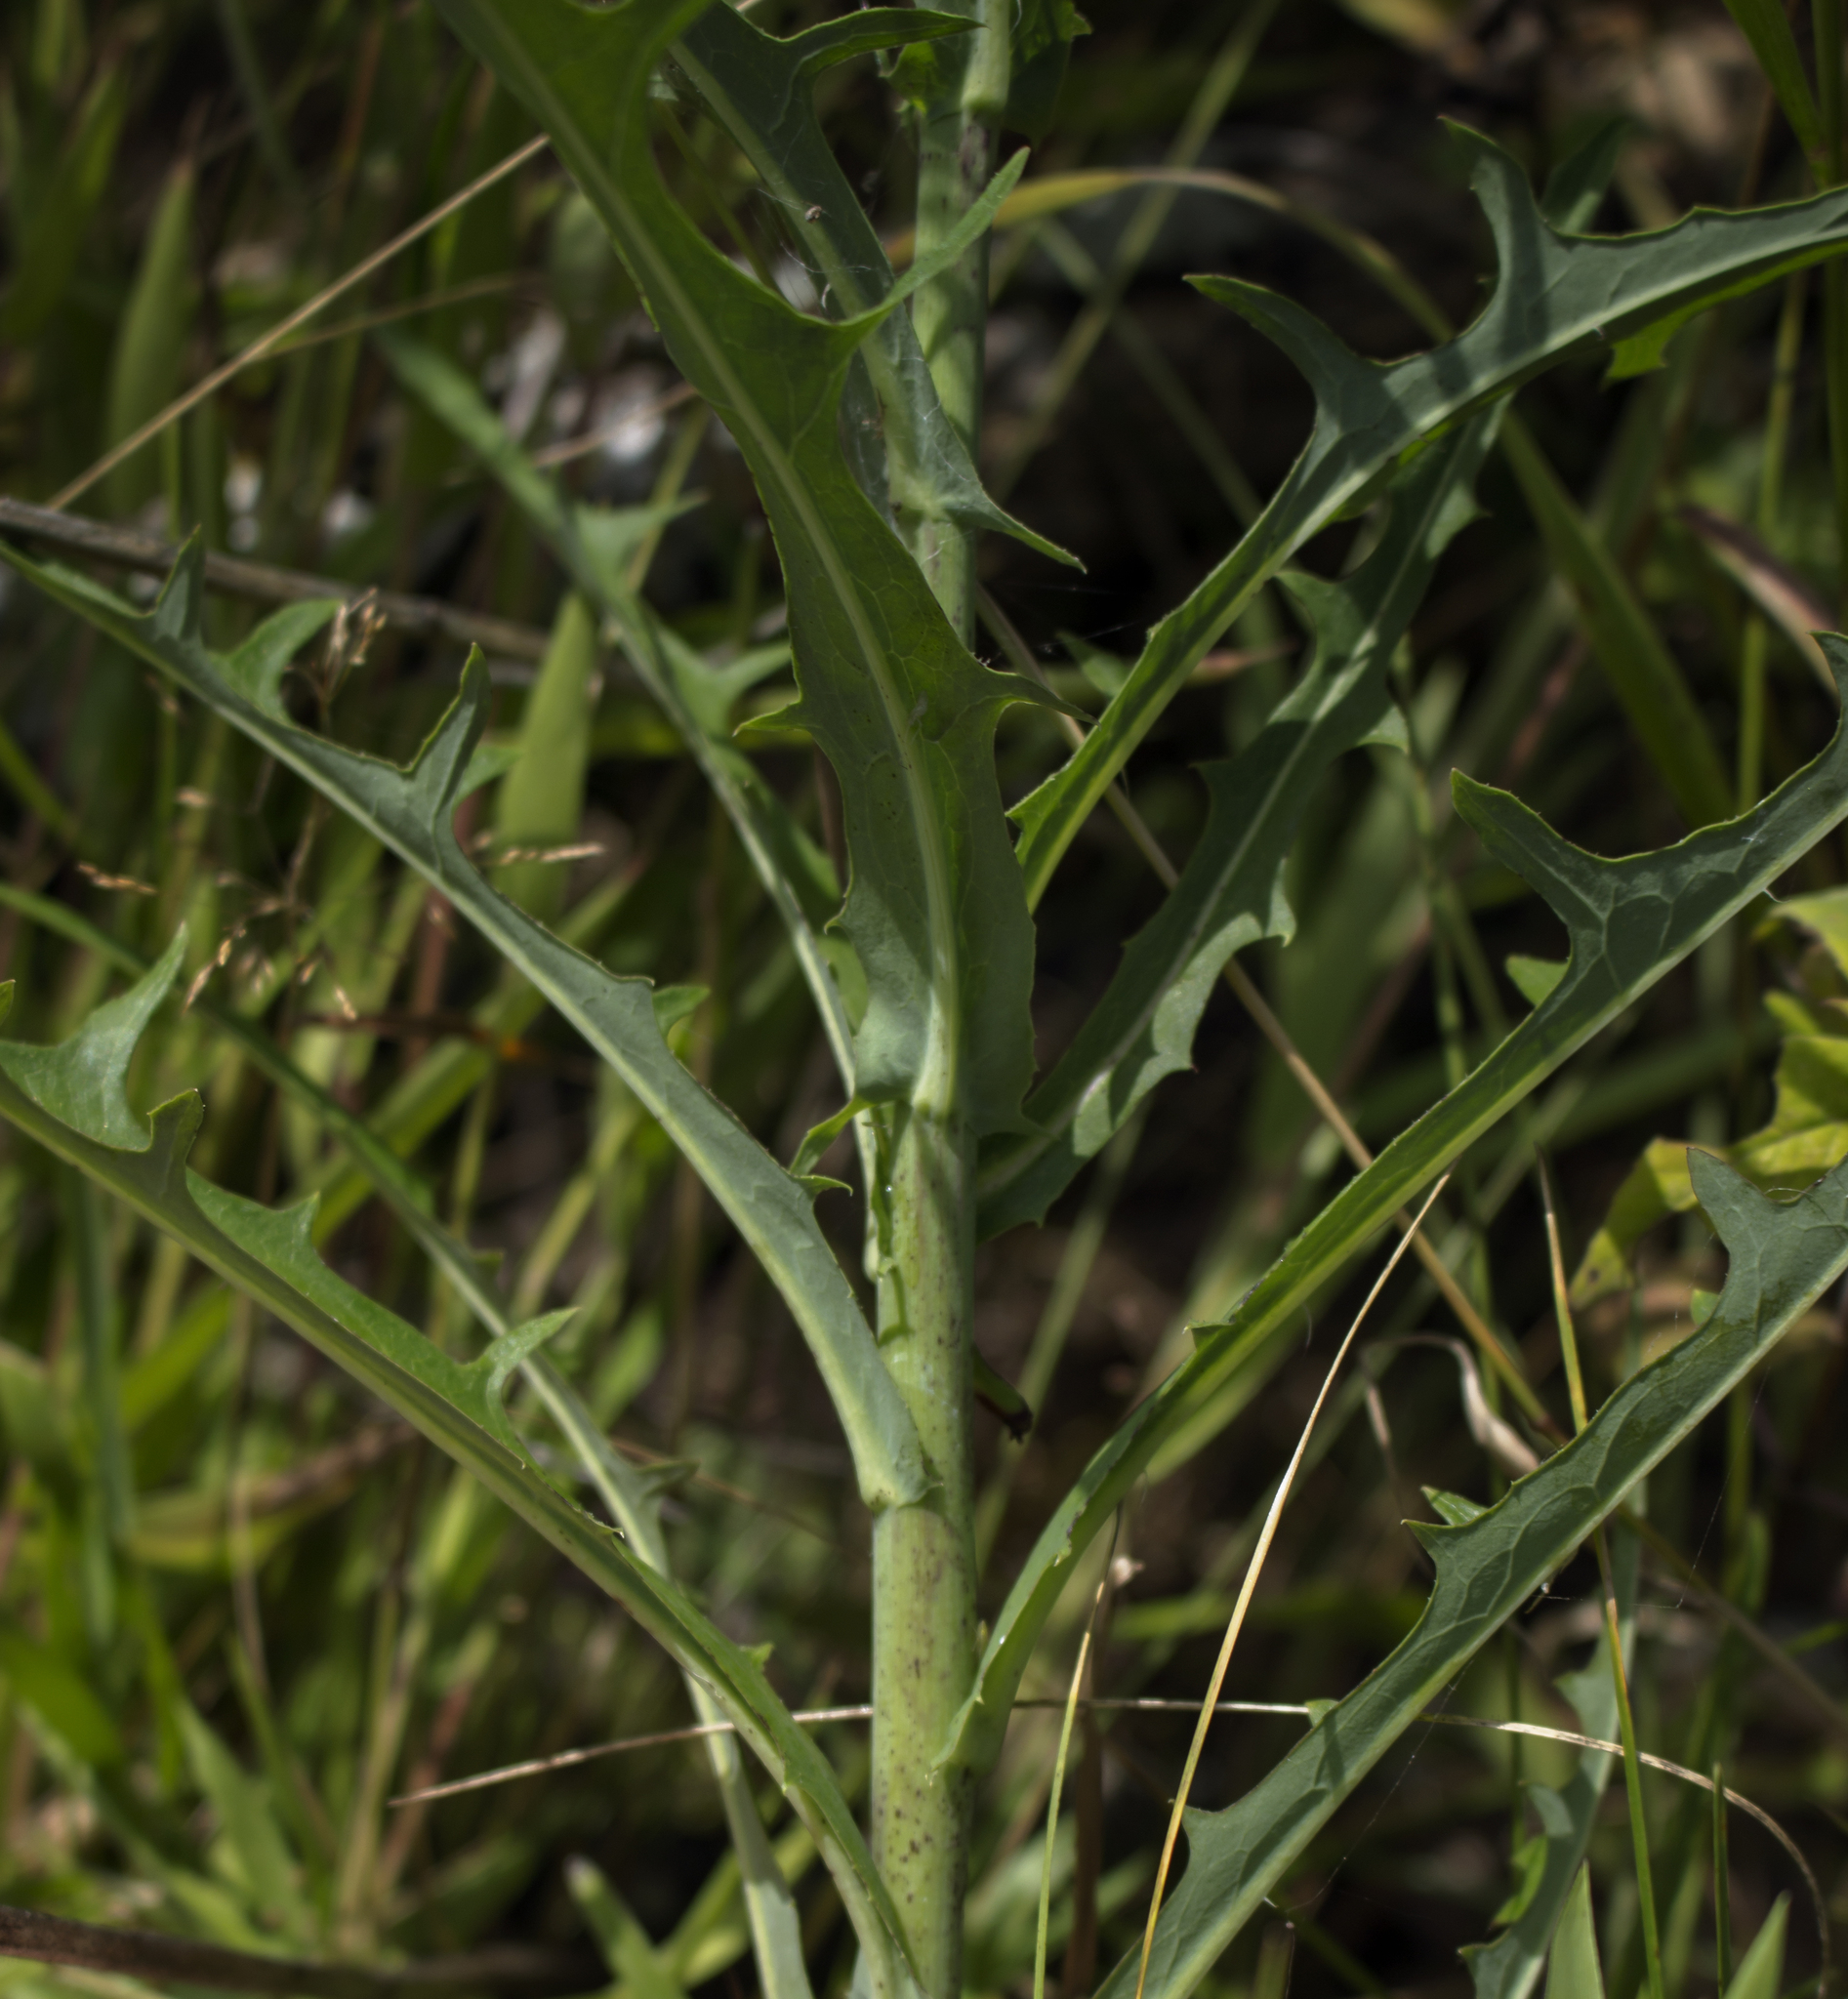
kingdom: Plantae
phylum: Tracheophyta
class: Magnoliopsida
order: Asterales
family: Asteraceae
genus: Lactuca
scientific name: Lactuca canadensis
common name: Canada lettuce
